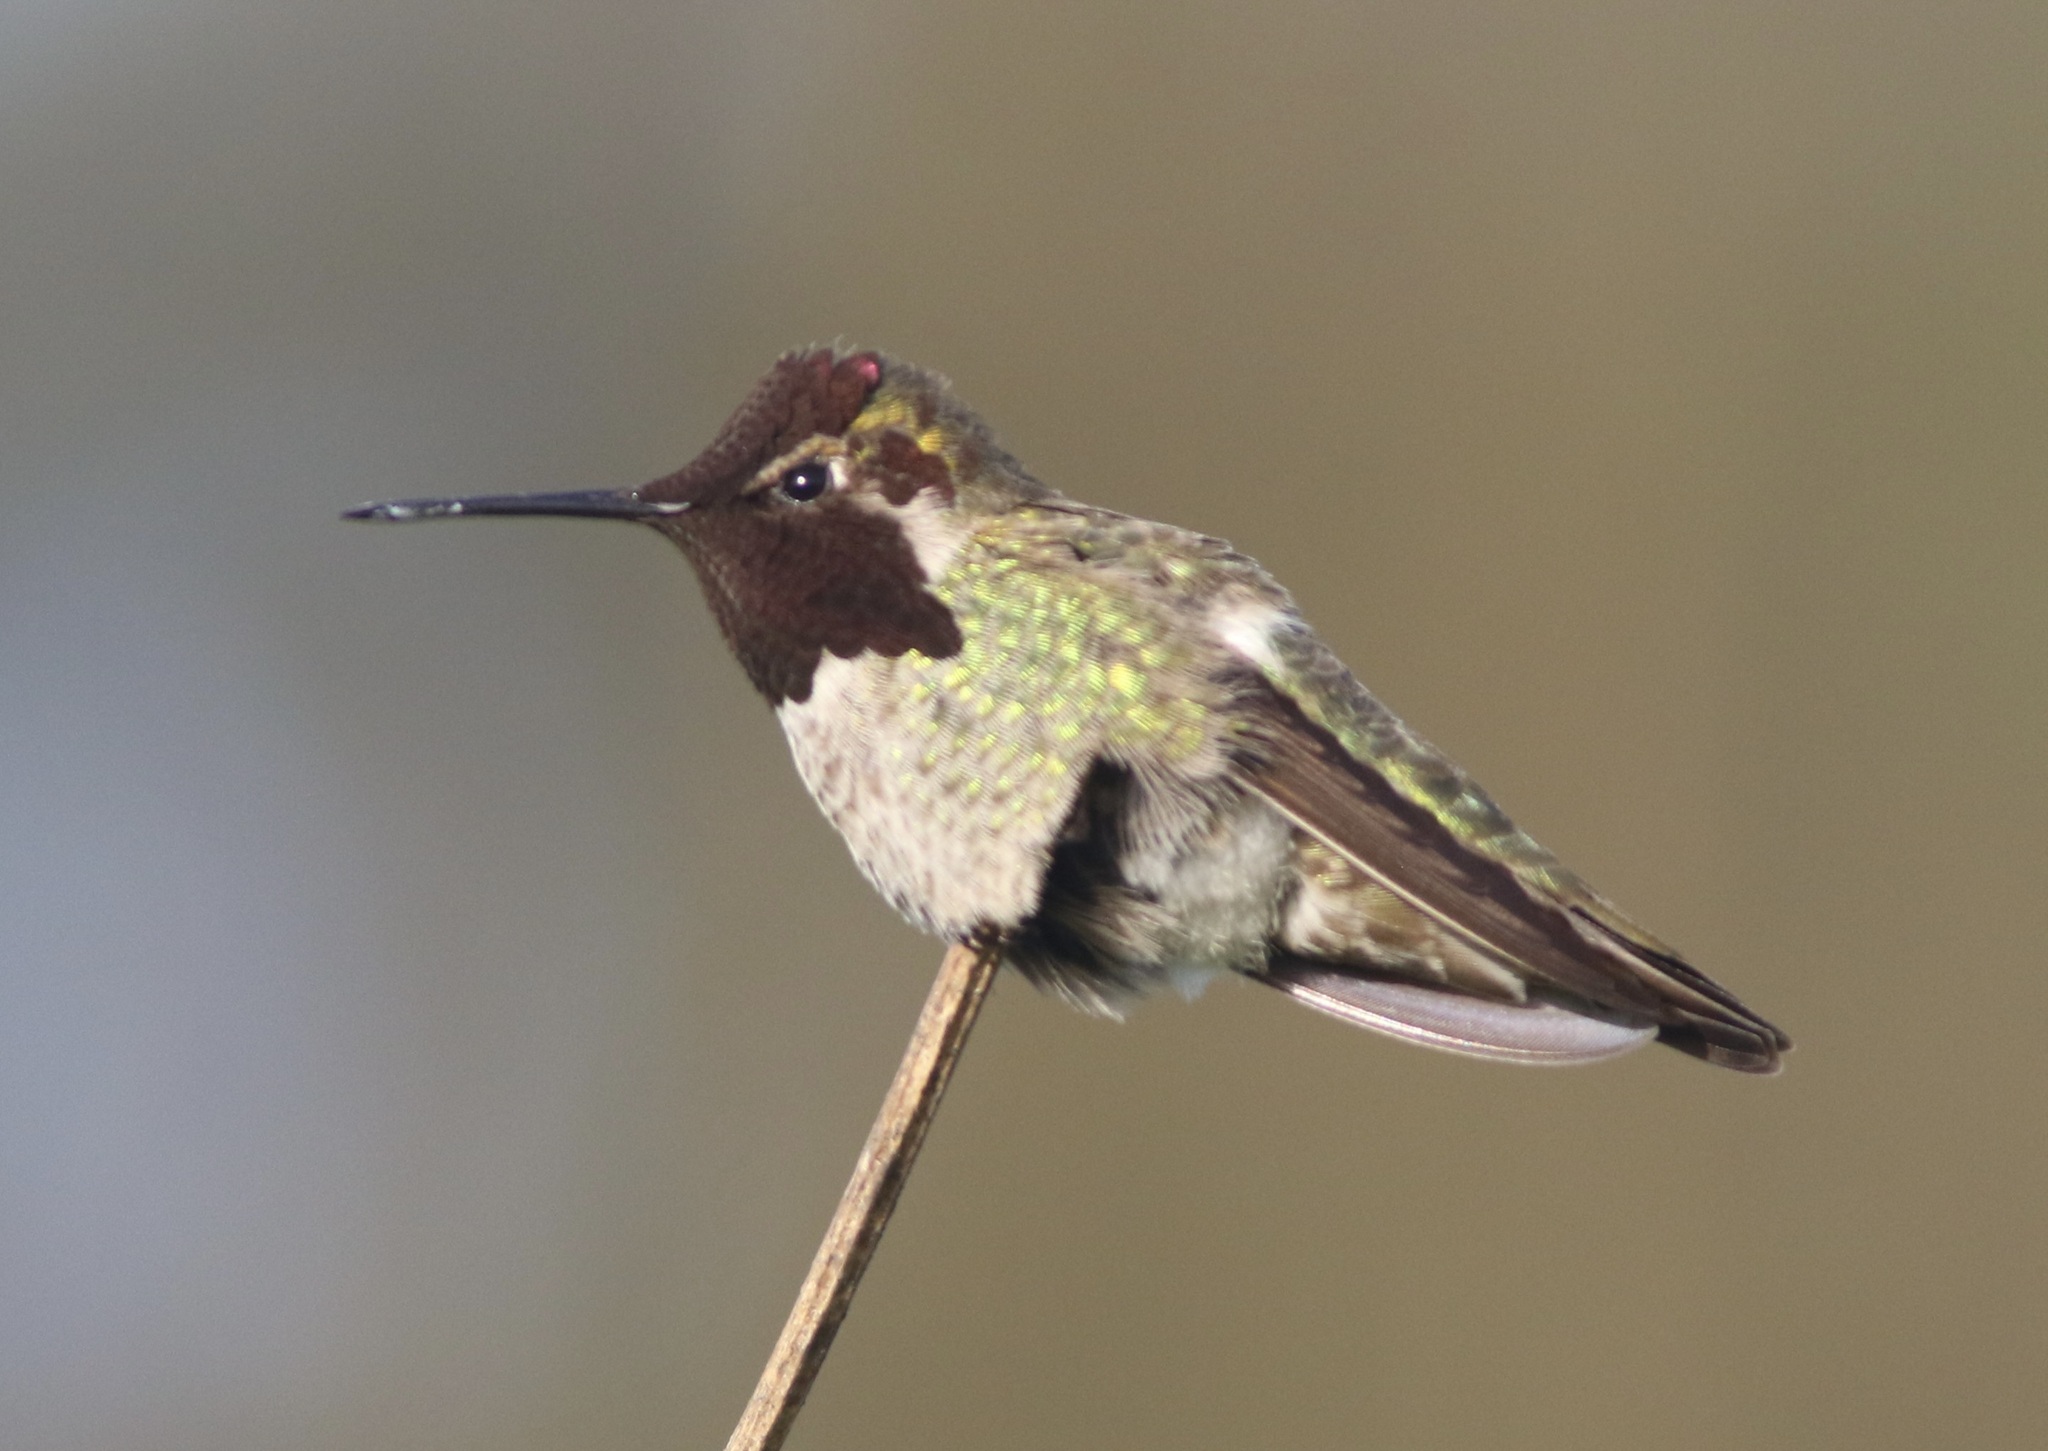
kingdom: Animalia
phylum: Chordata
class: Aves
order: Apodiformes
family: Trochilidae
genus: Calypte
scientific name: Calypte anna
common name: Anna's hummingbird
